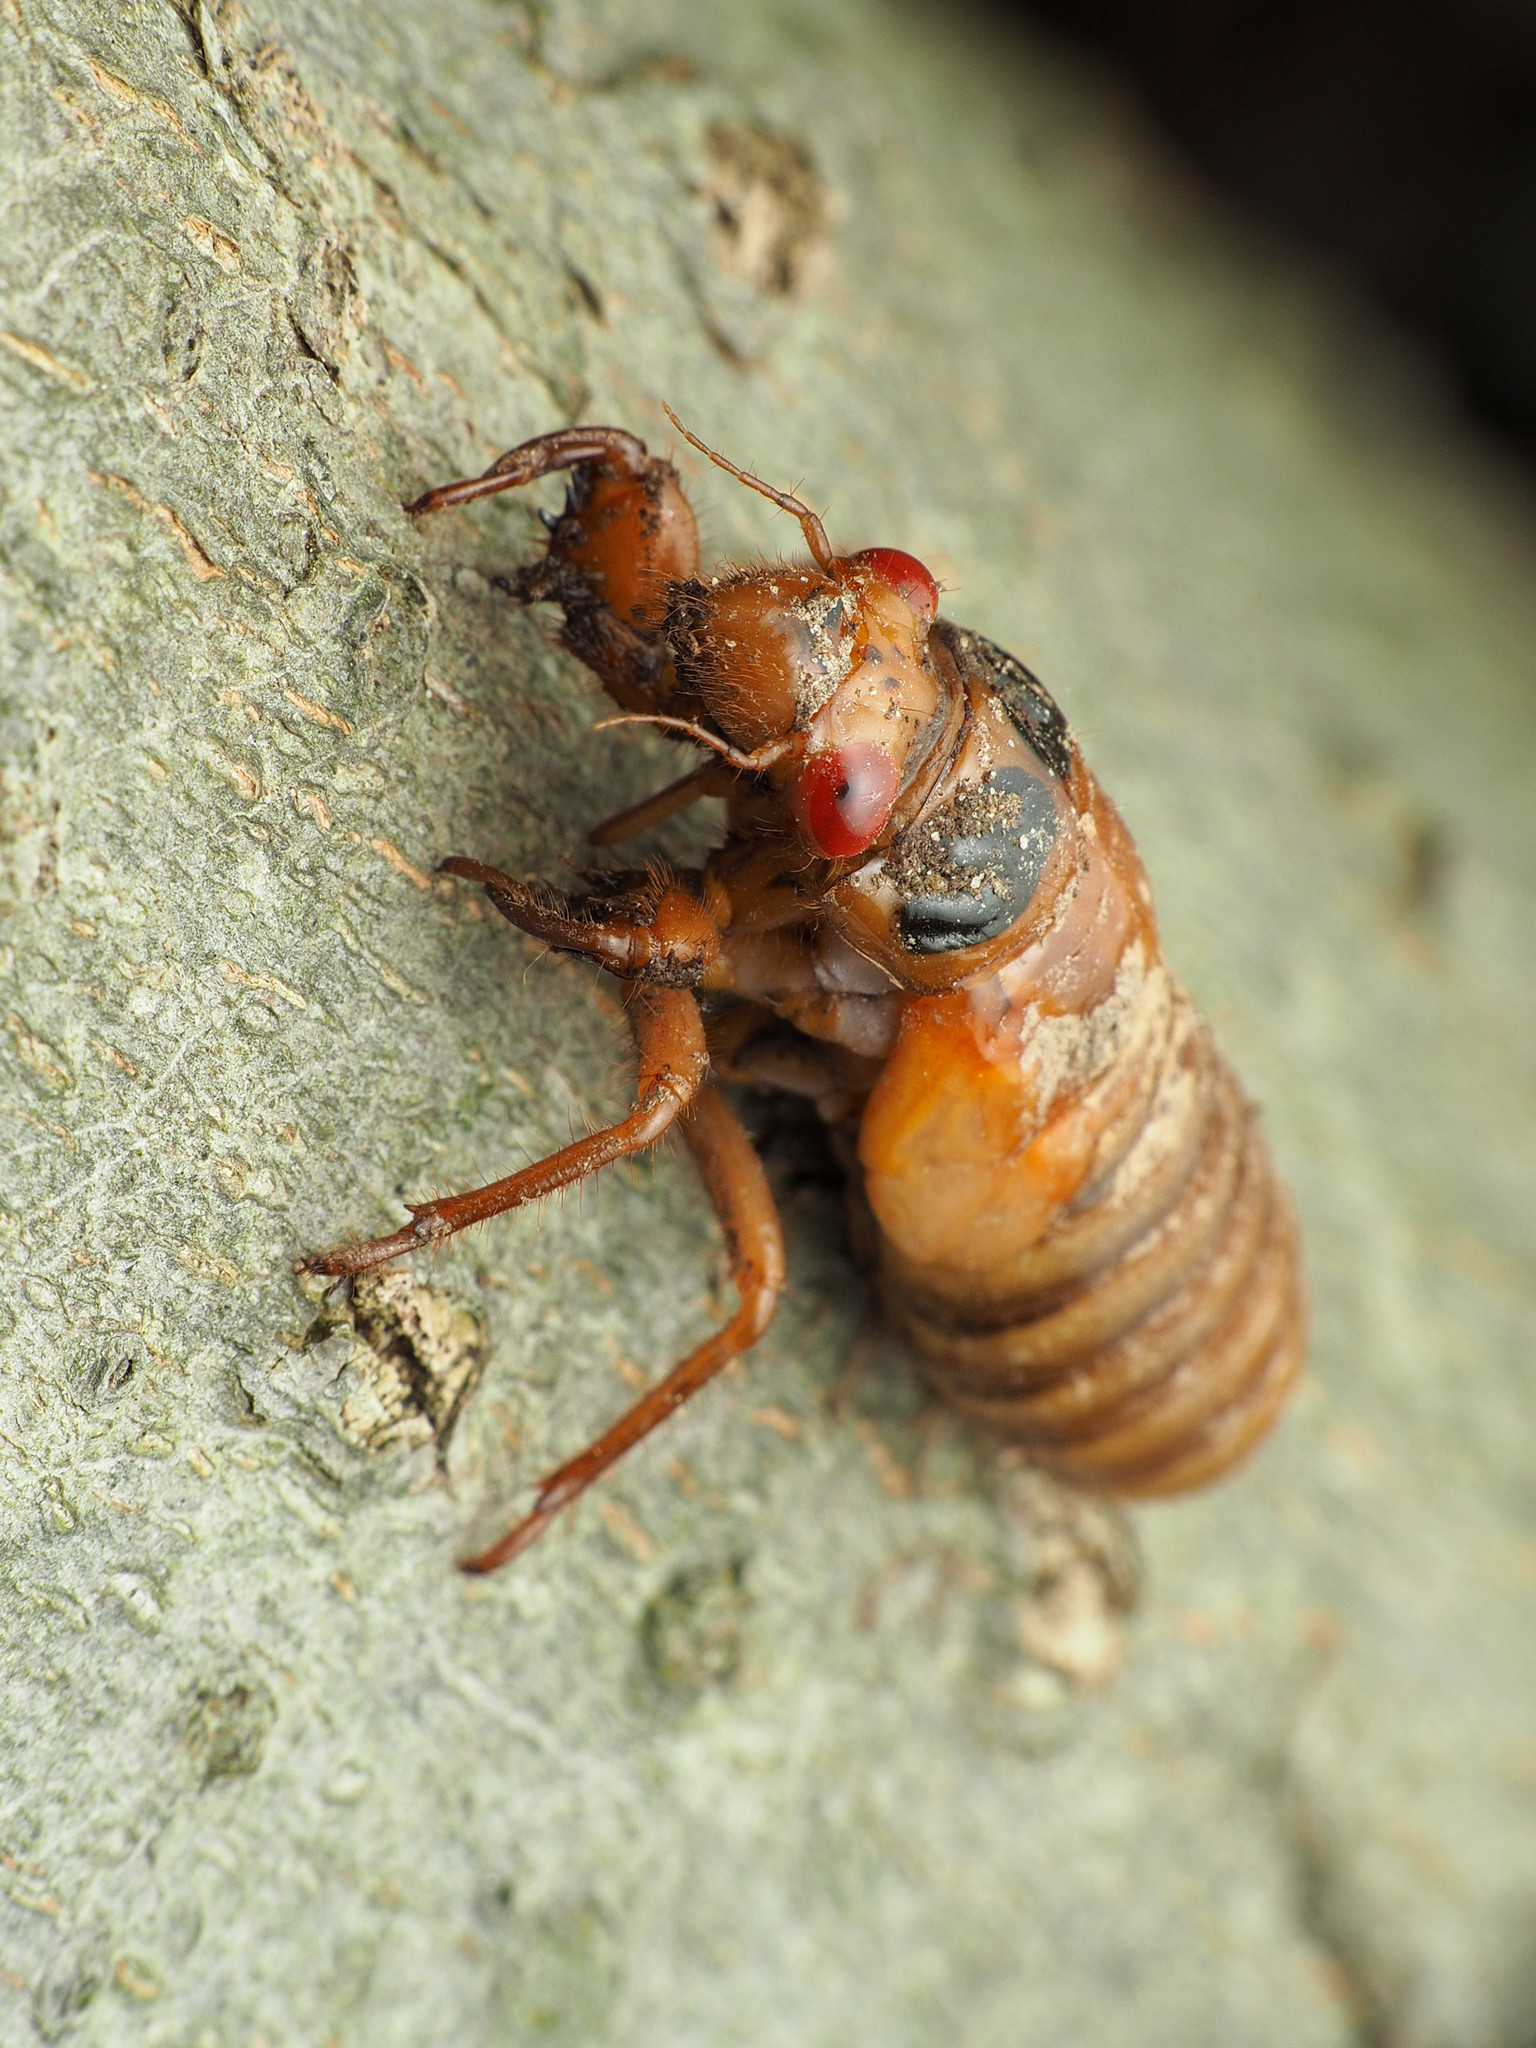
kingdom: Animalia
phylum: Arthropoda
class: Insecta
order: Hemiptera
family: Cicadidae
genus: Magicicada
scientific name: Magicicada
